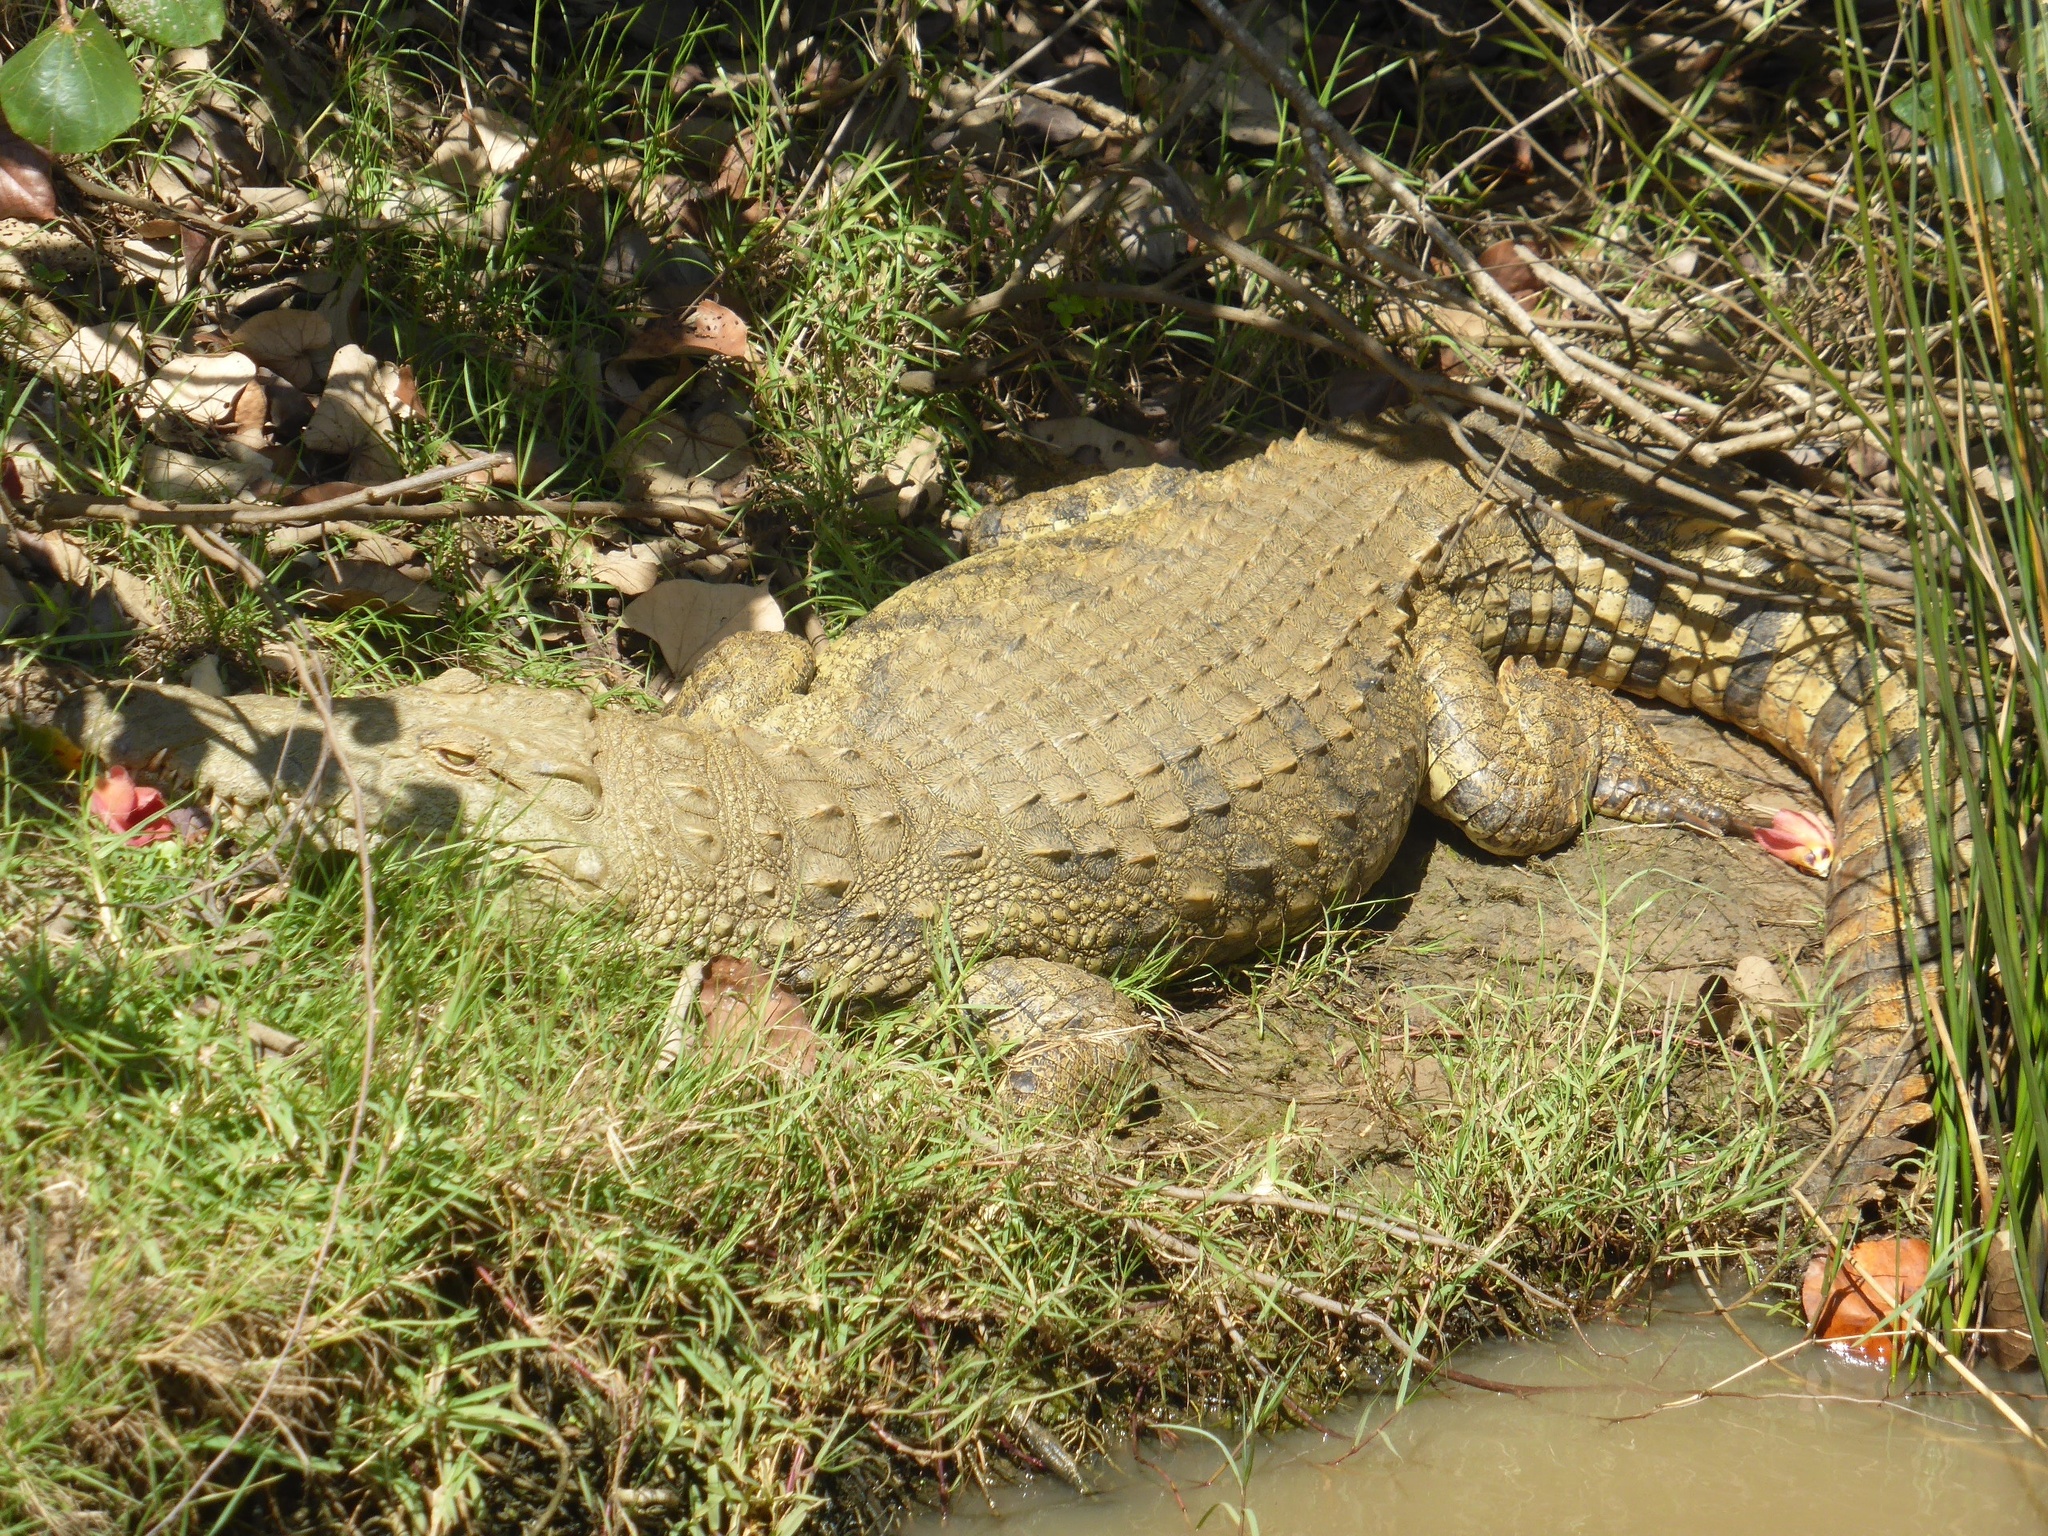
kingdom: Animalia
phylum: Chordata
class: Crocodylia
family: Crocodylidae
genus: Crocodylus
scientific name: Crocodylus niloticus
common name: Nile crocodile
